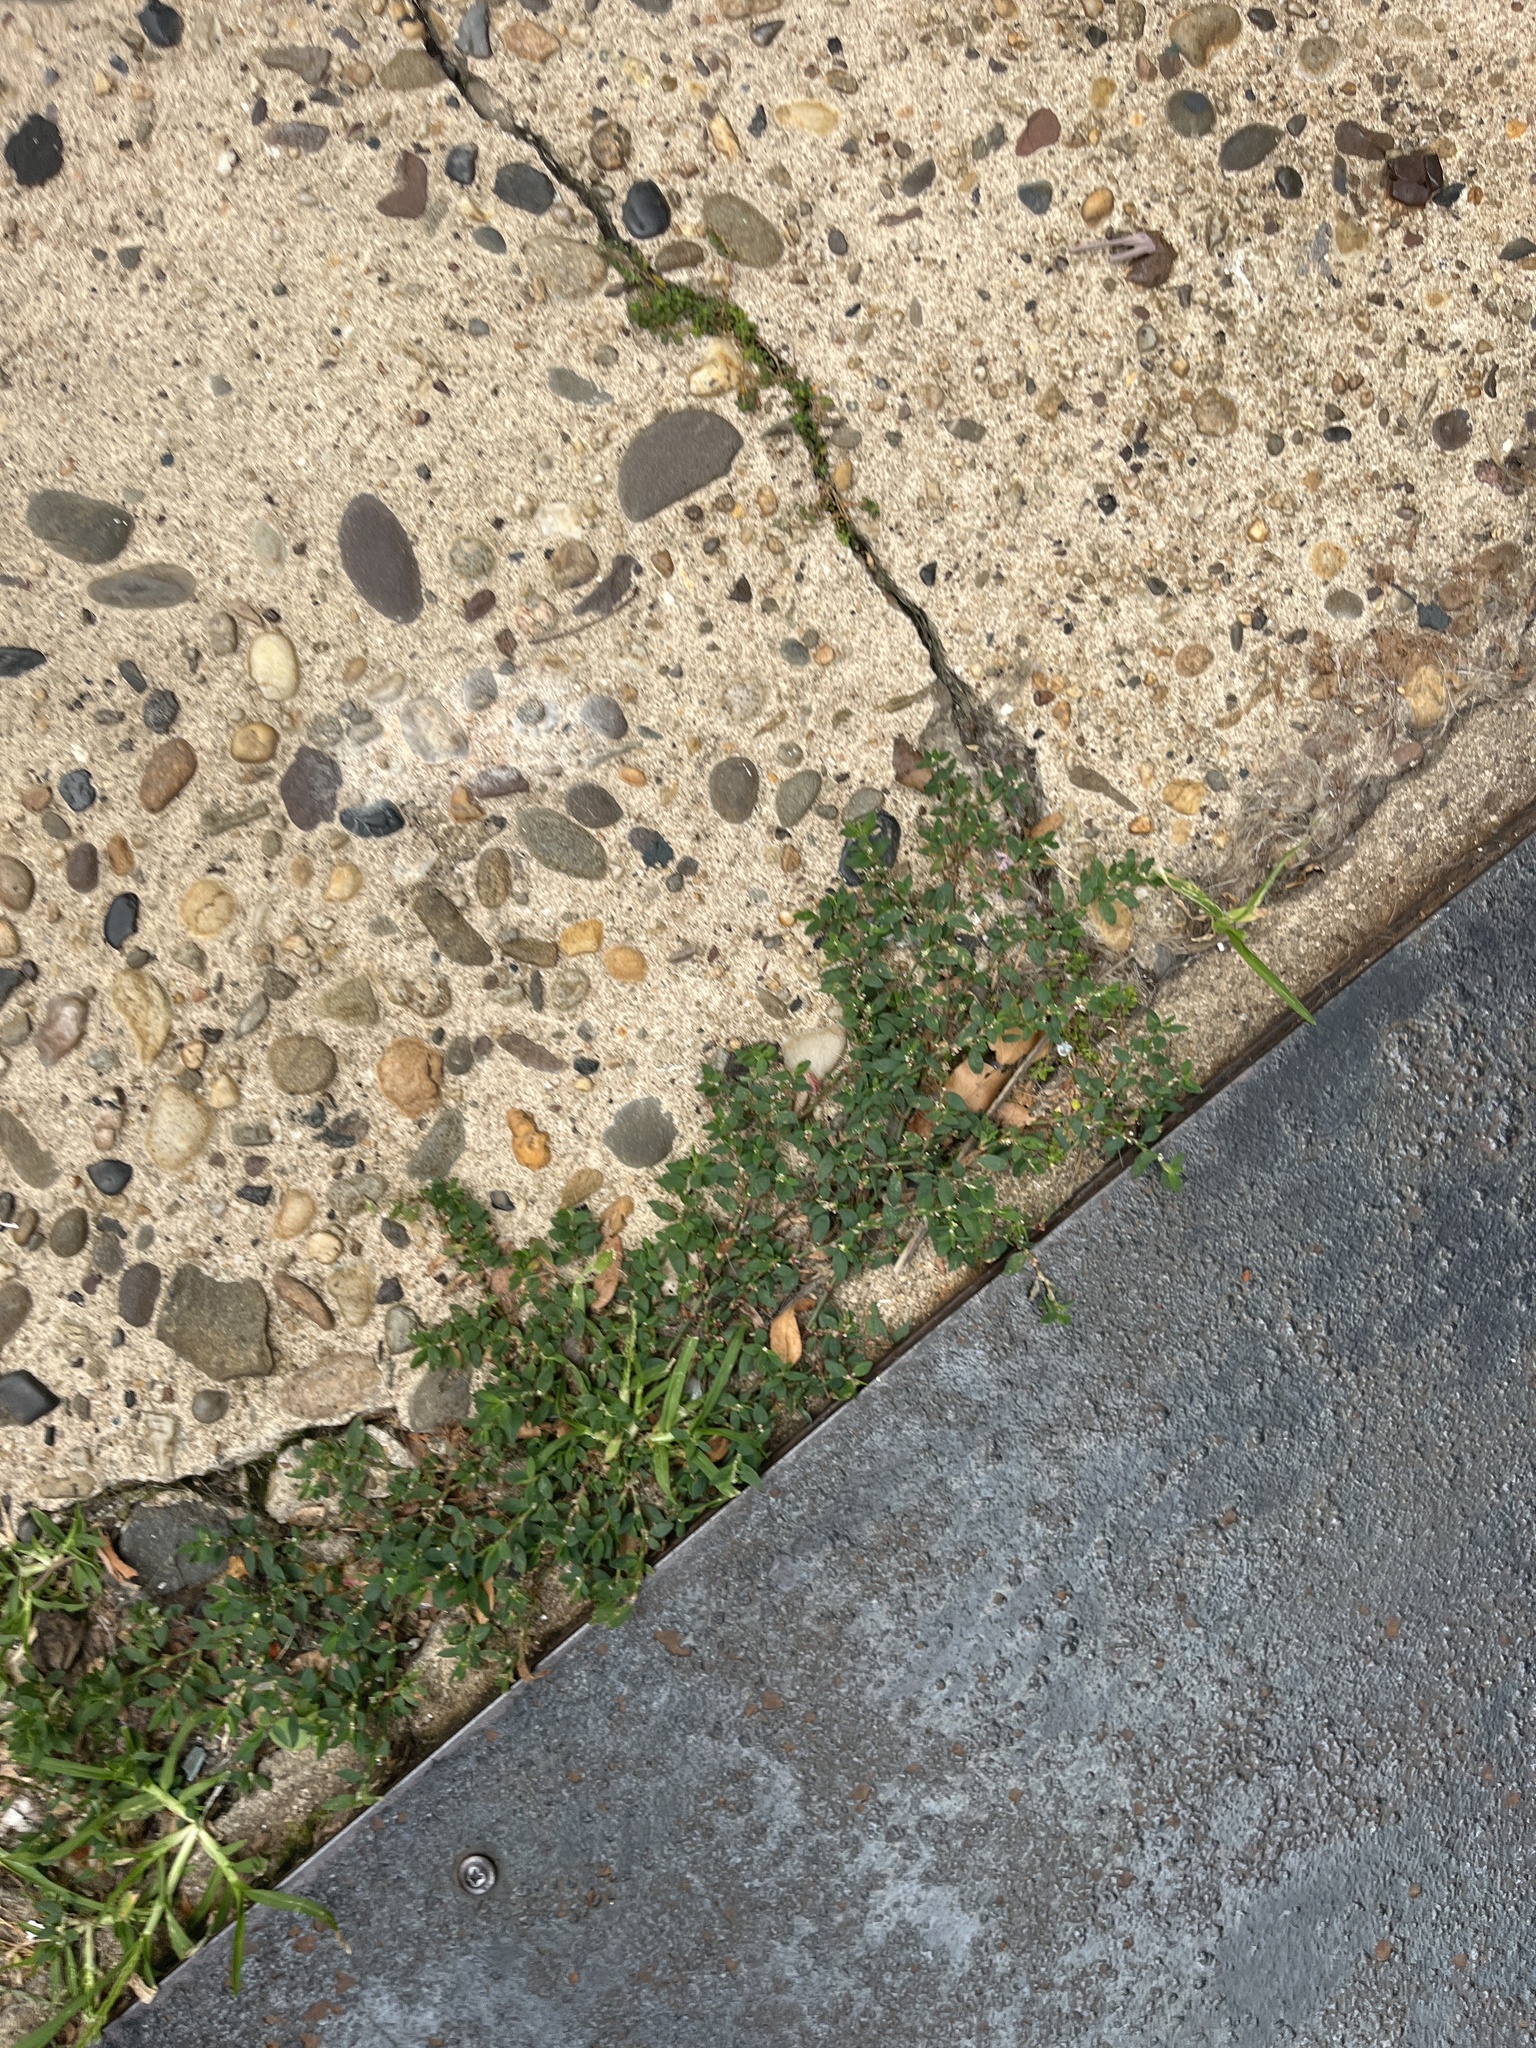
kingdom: Plantae
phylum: Tracheophyta
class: Magnoliopsida
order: Caryophyllales
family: Polygonaceae
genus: Polygonum
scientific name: Polygonum aviculare
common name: Prostrate knotweed
